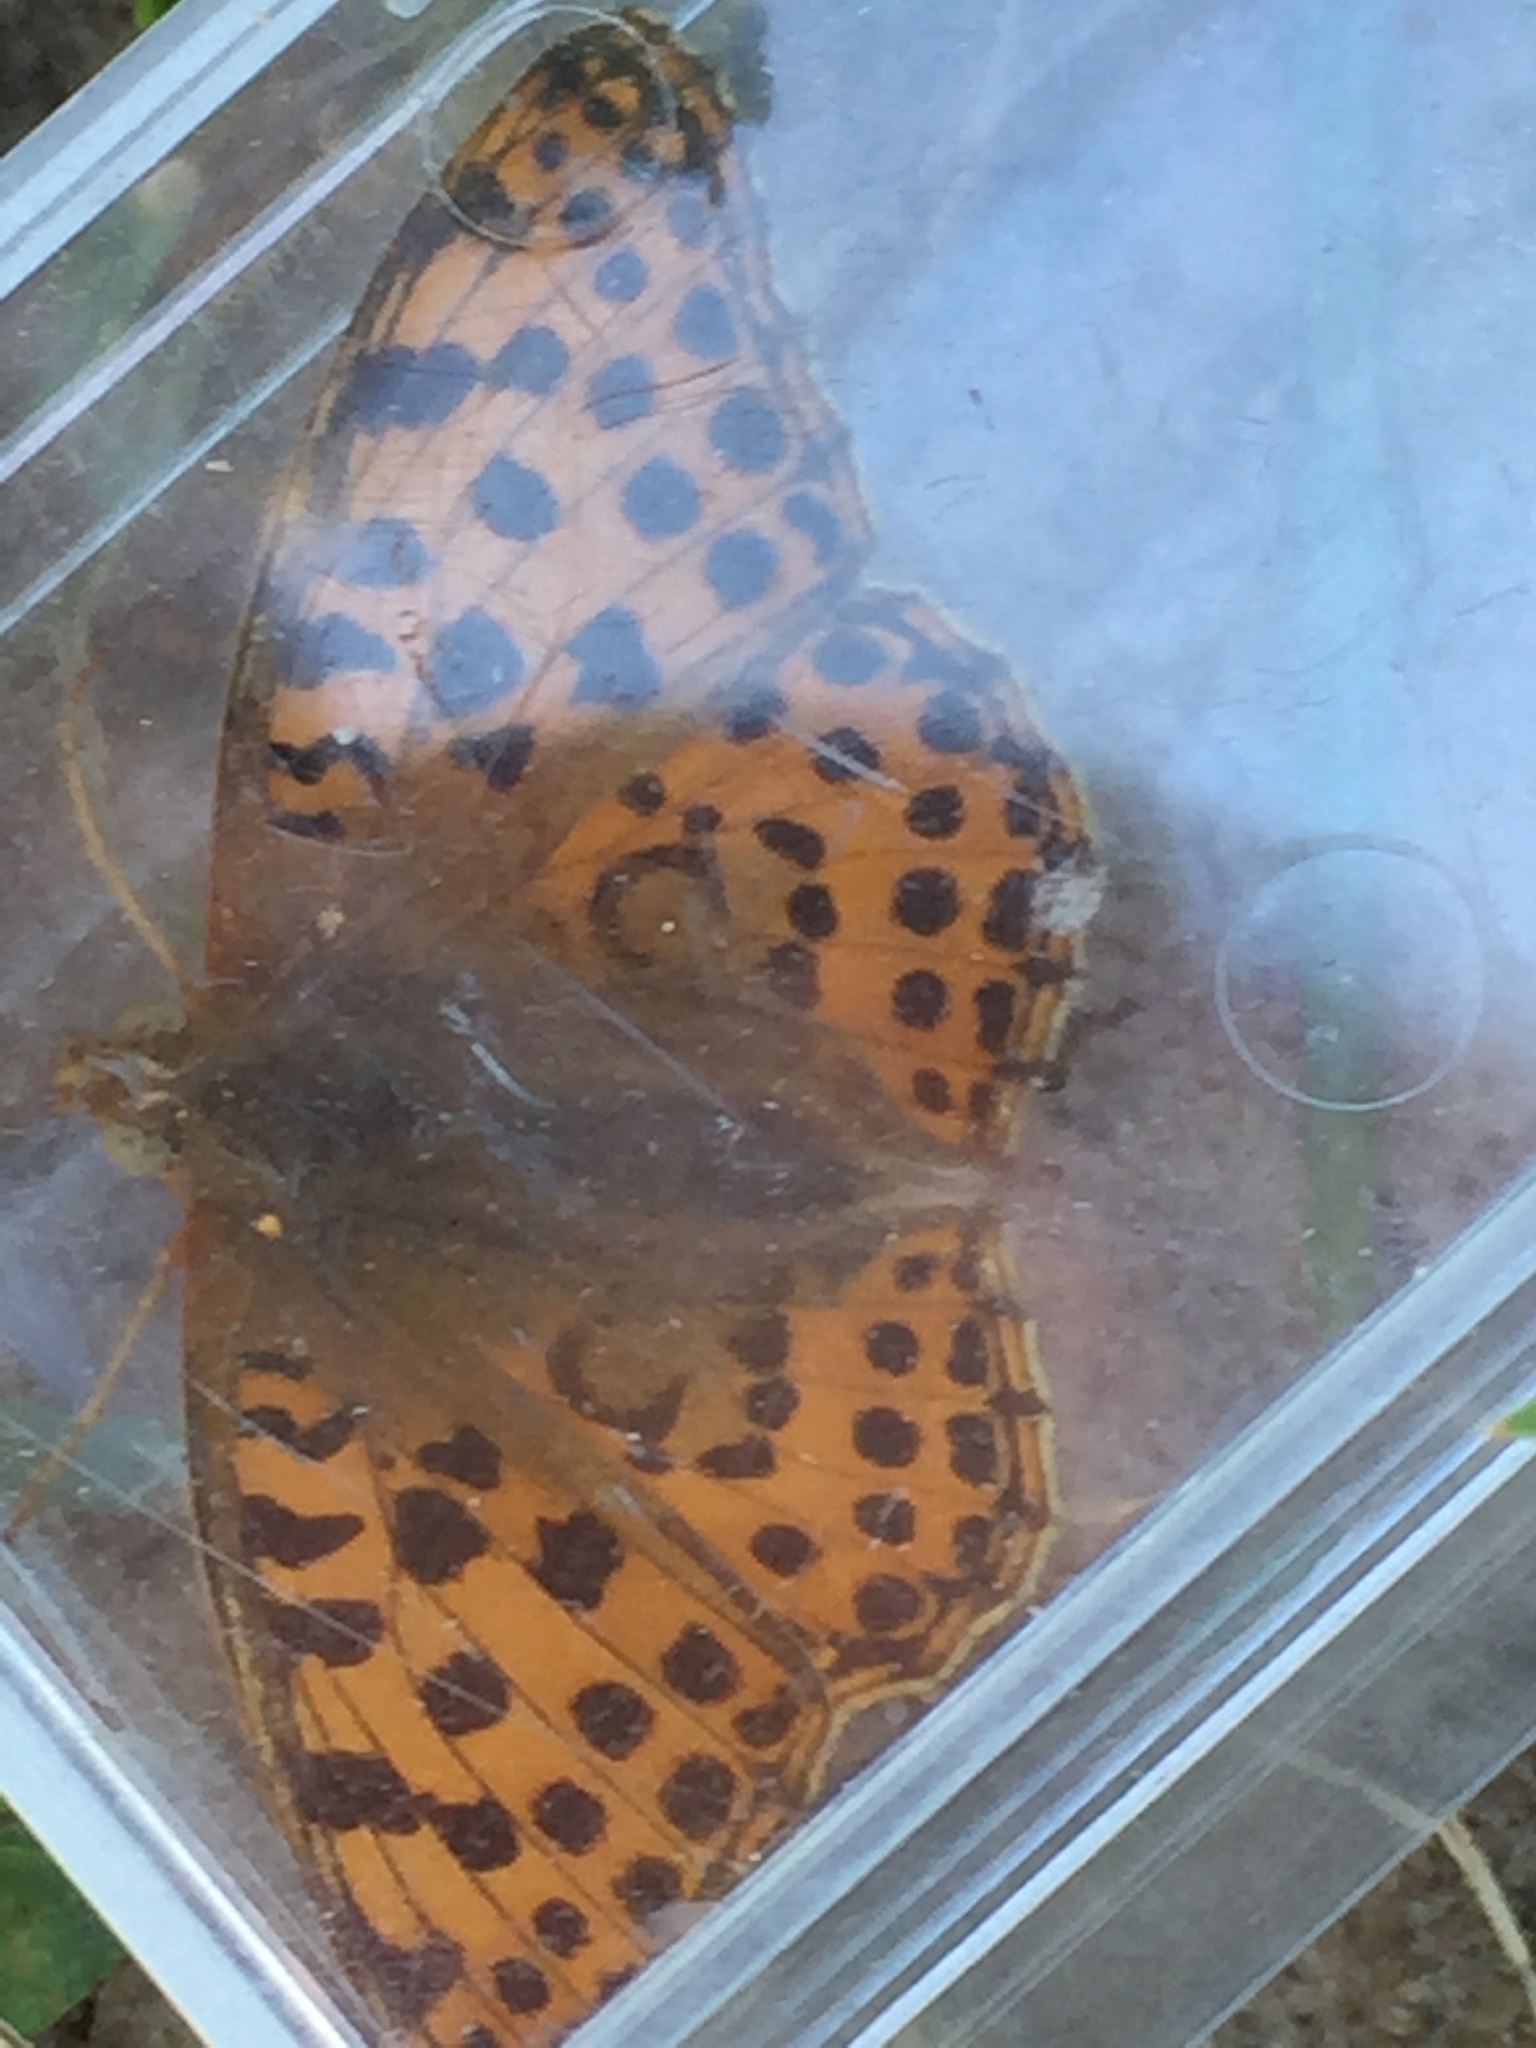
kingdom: Animalia
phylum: Arthropoda
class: Insecta
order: Lepidoptera
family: Nymphalidae
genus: Issoria
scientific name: Issoria lathonia
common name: Queen of spain fritillary
